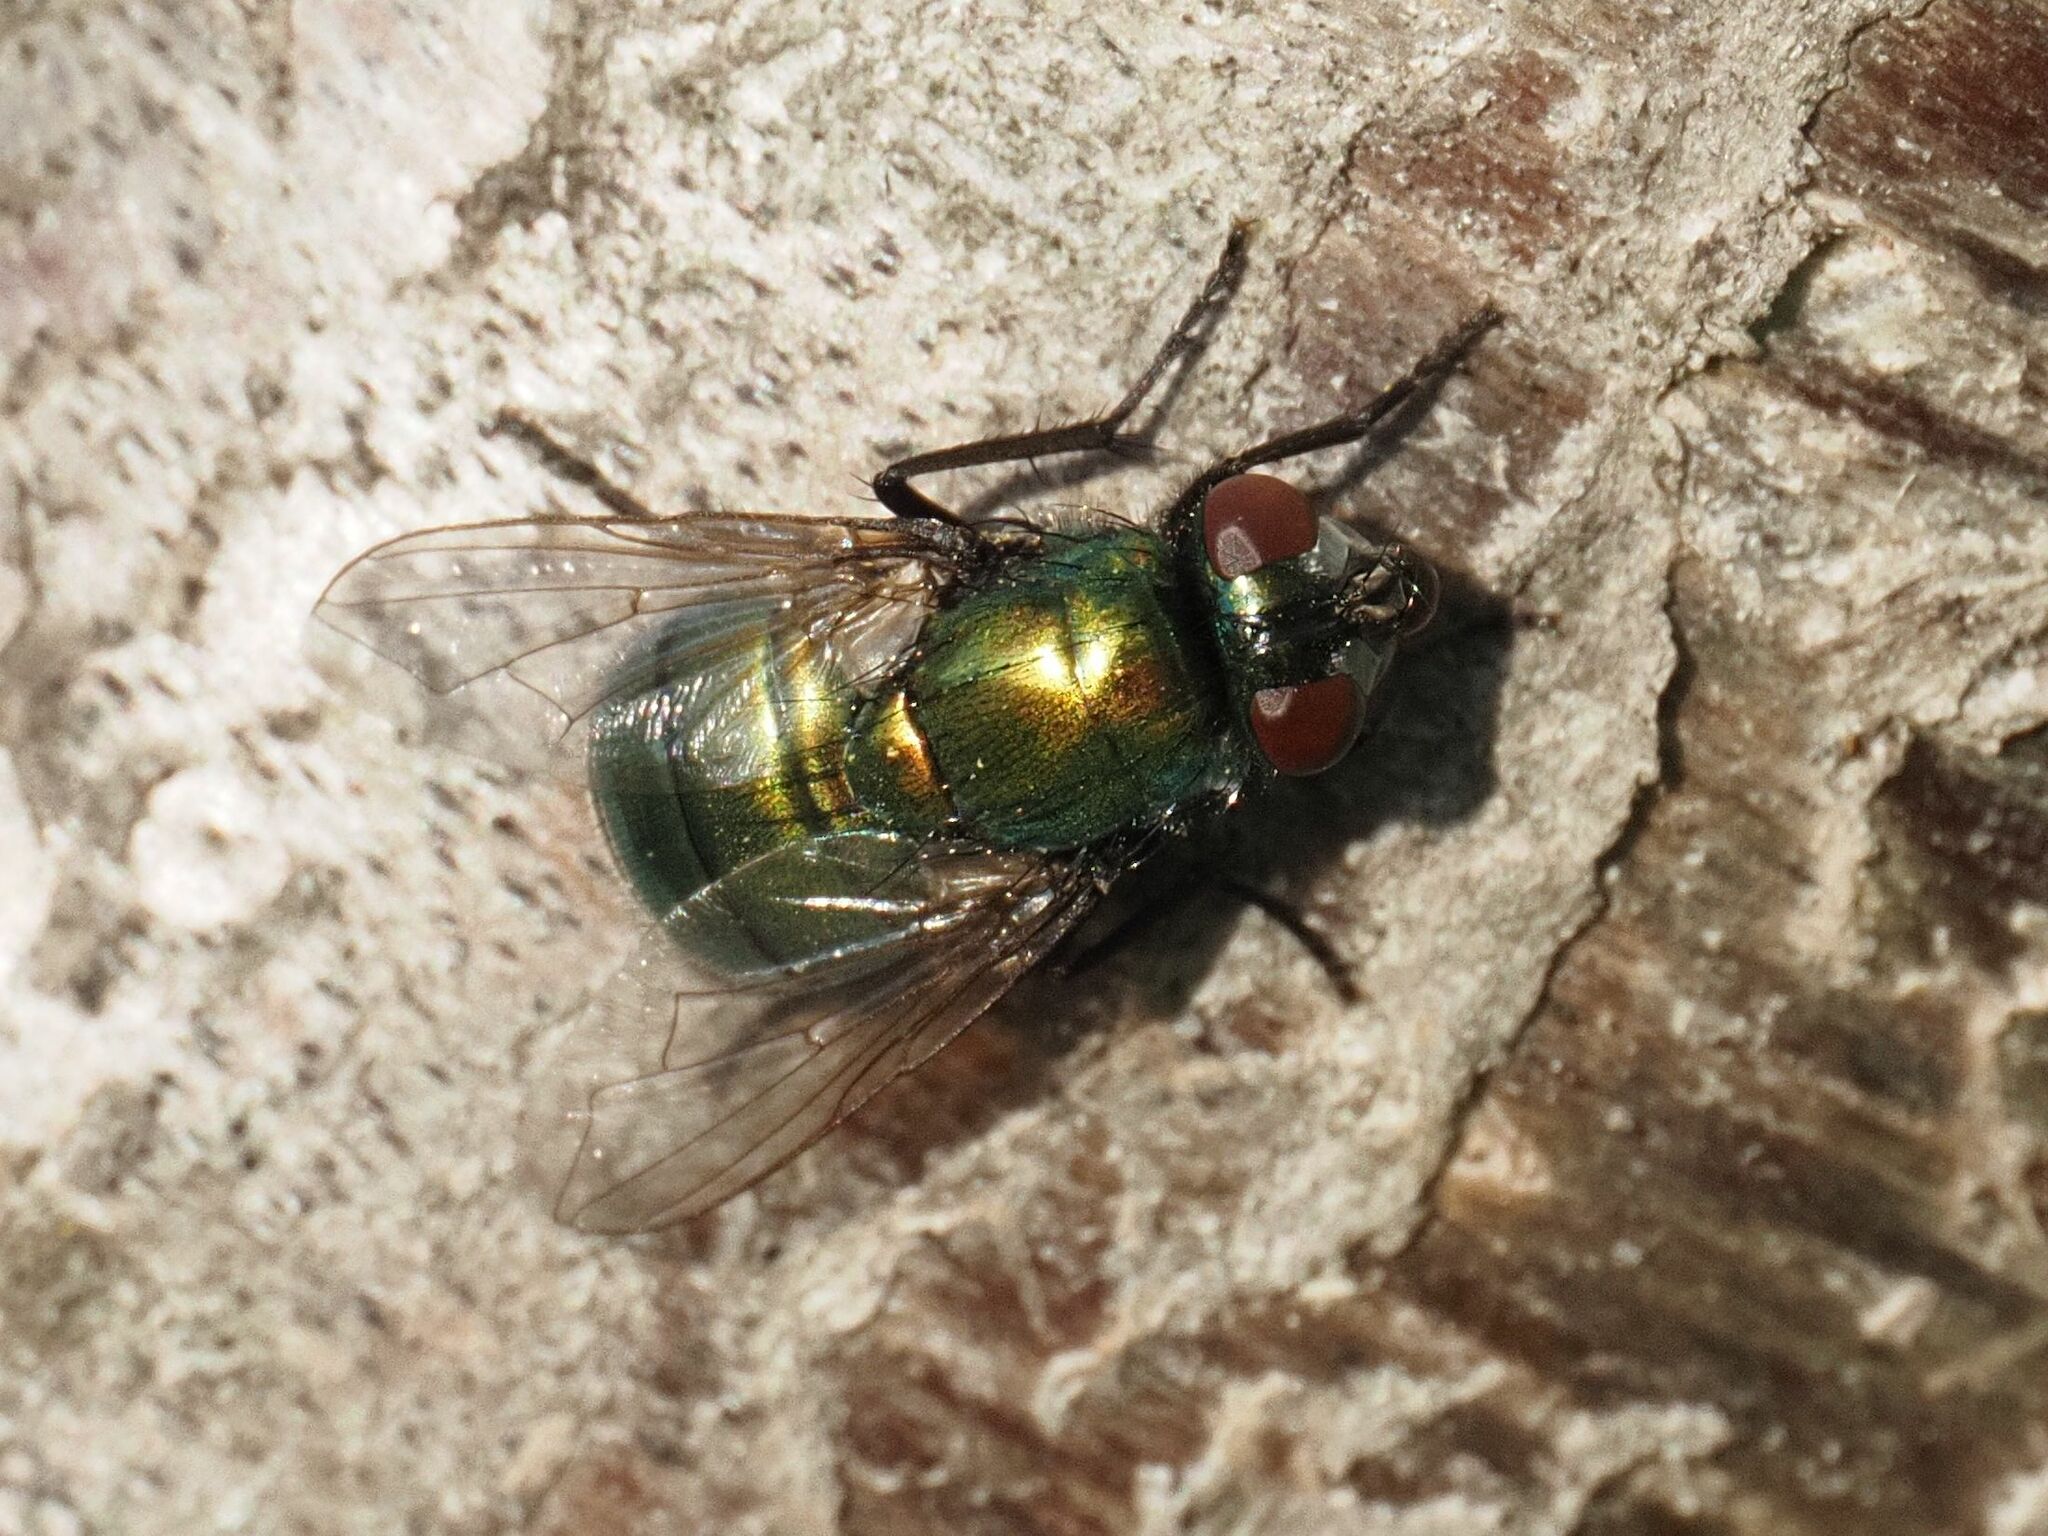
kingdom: Animalia
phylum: Arthropoda
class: Insecta
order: Diptera
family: Muscidae
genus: Neomyia
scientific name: Neomyia viridescens
